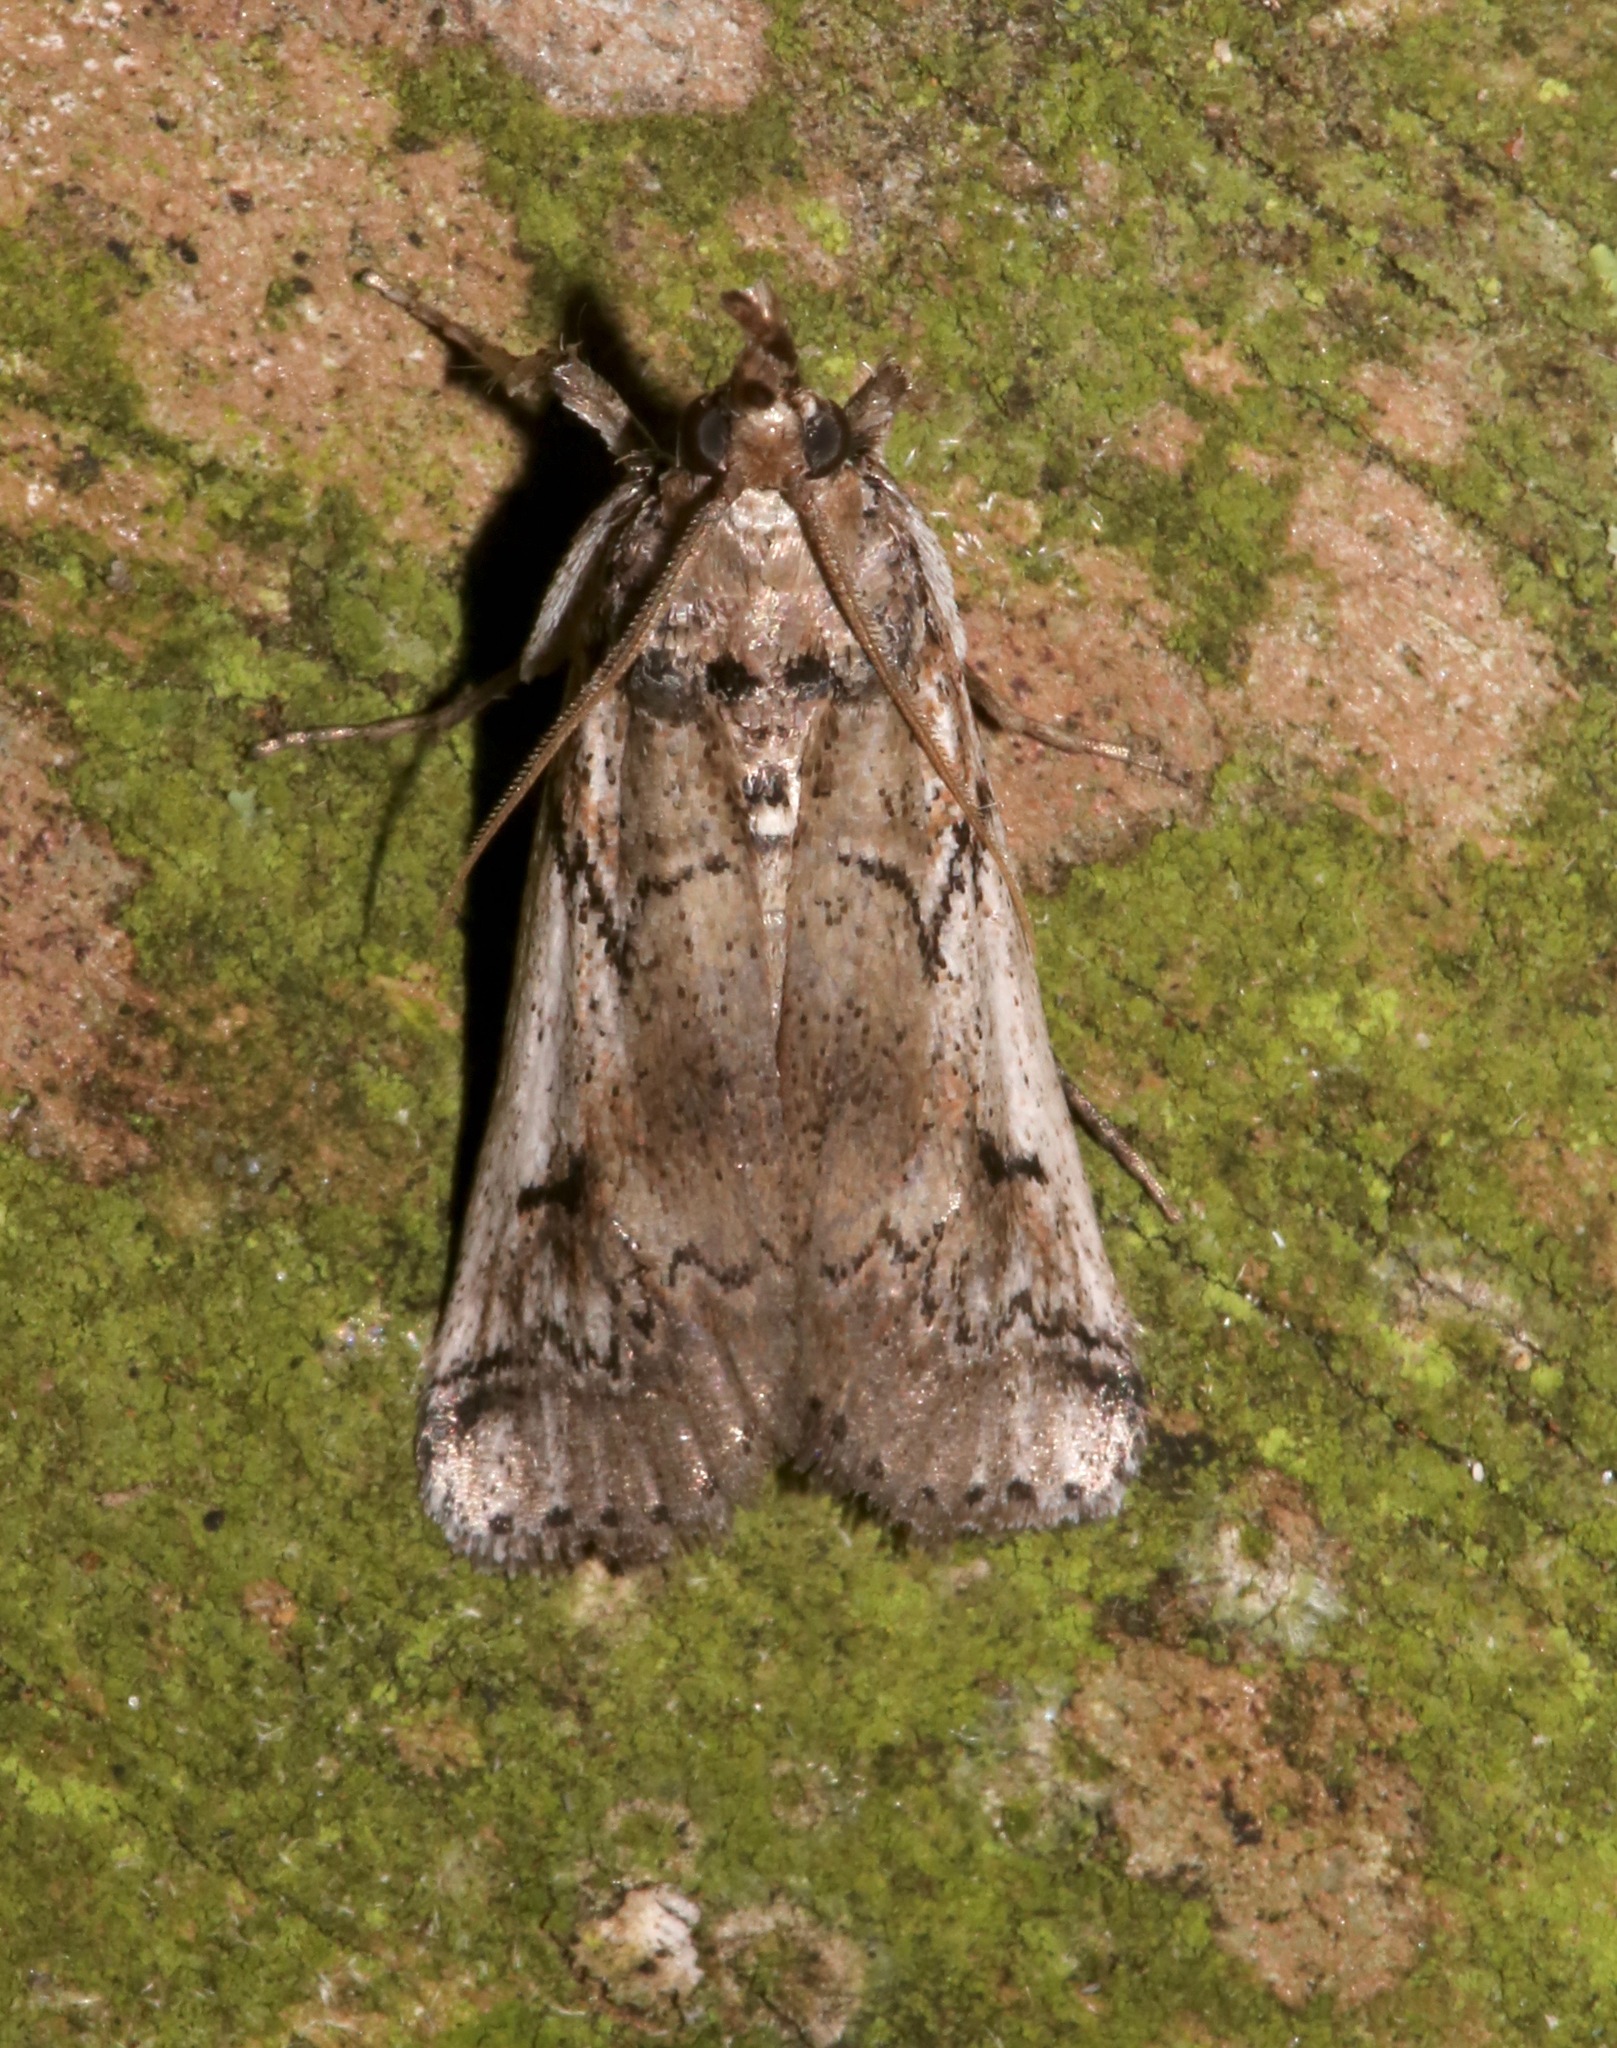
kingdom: Animalia
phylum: Arthropoda
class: Insecta
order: Lepidoptera
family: Pyralidae
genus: Melitara
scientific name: Melitara prodenialis
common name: Moth
